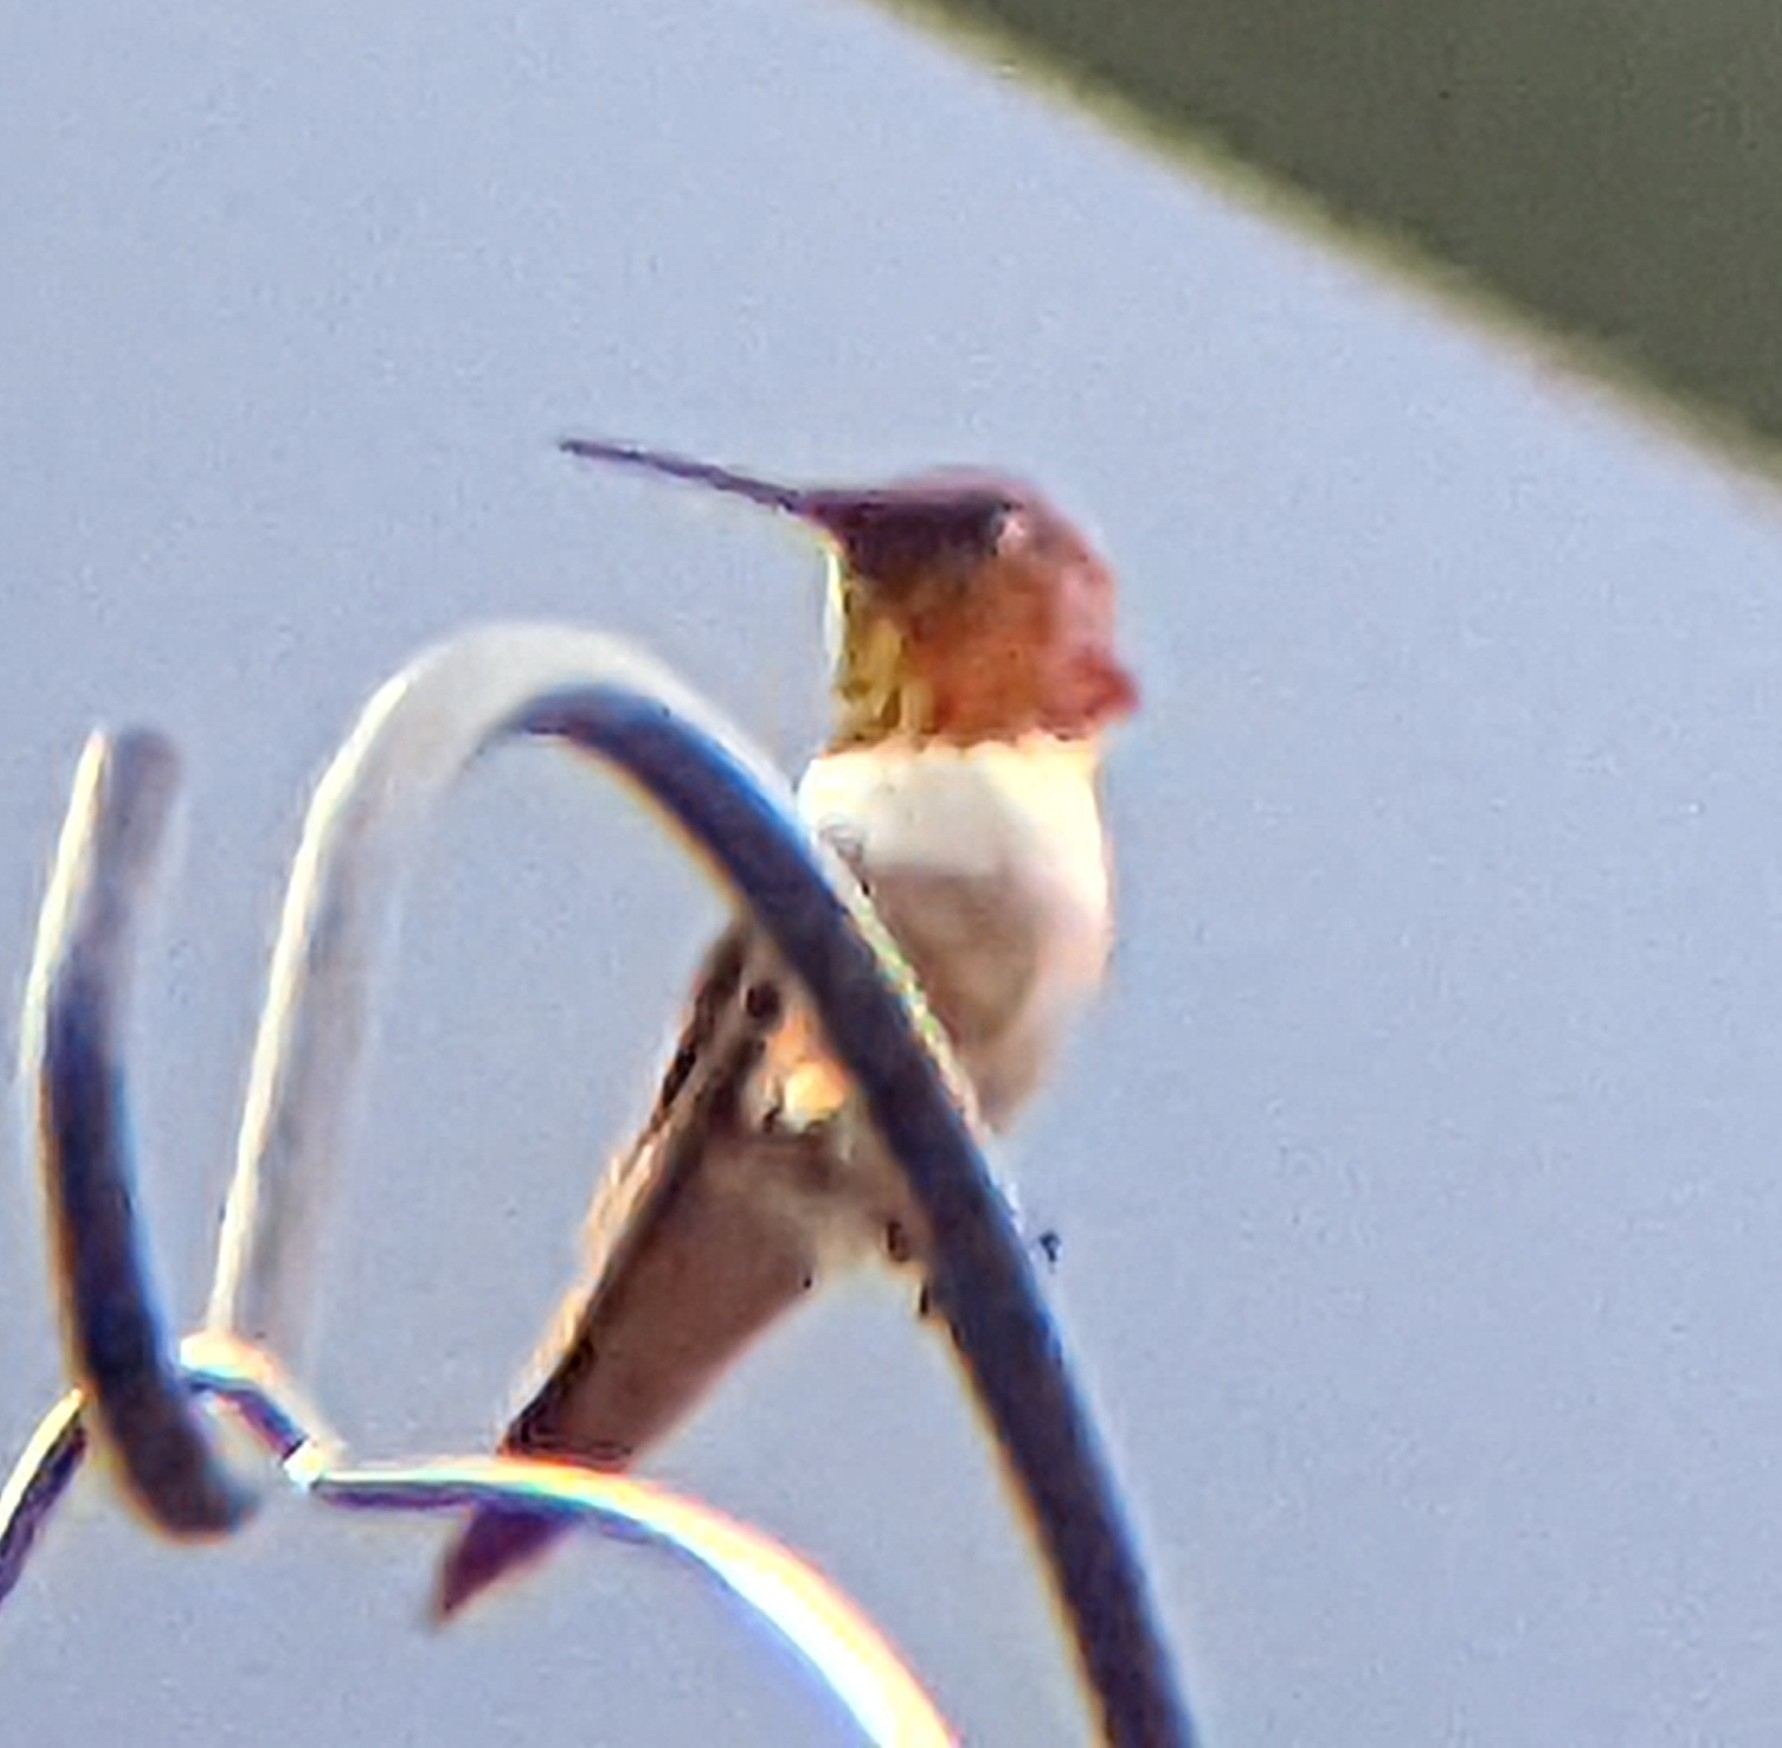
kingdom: Animalia
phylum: Chordata
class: Aves
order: Apodiformes
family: Trochilidae
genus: Selasphorus
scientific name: Selasphorus rufus
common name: Rufous hummingbird
